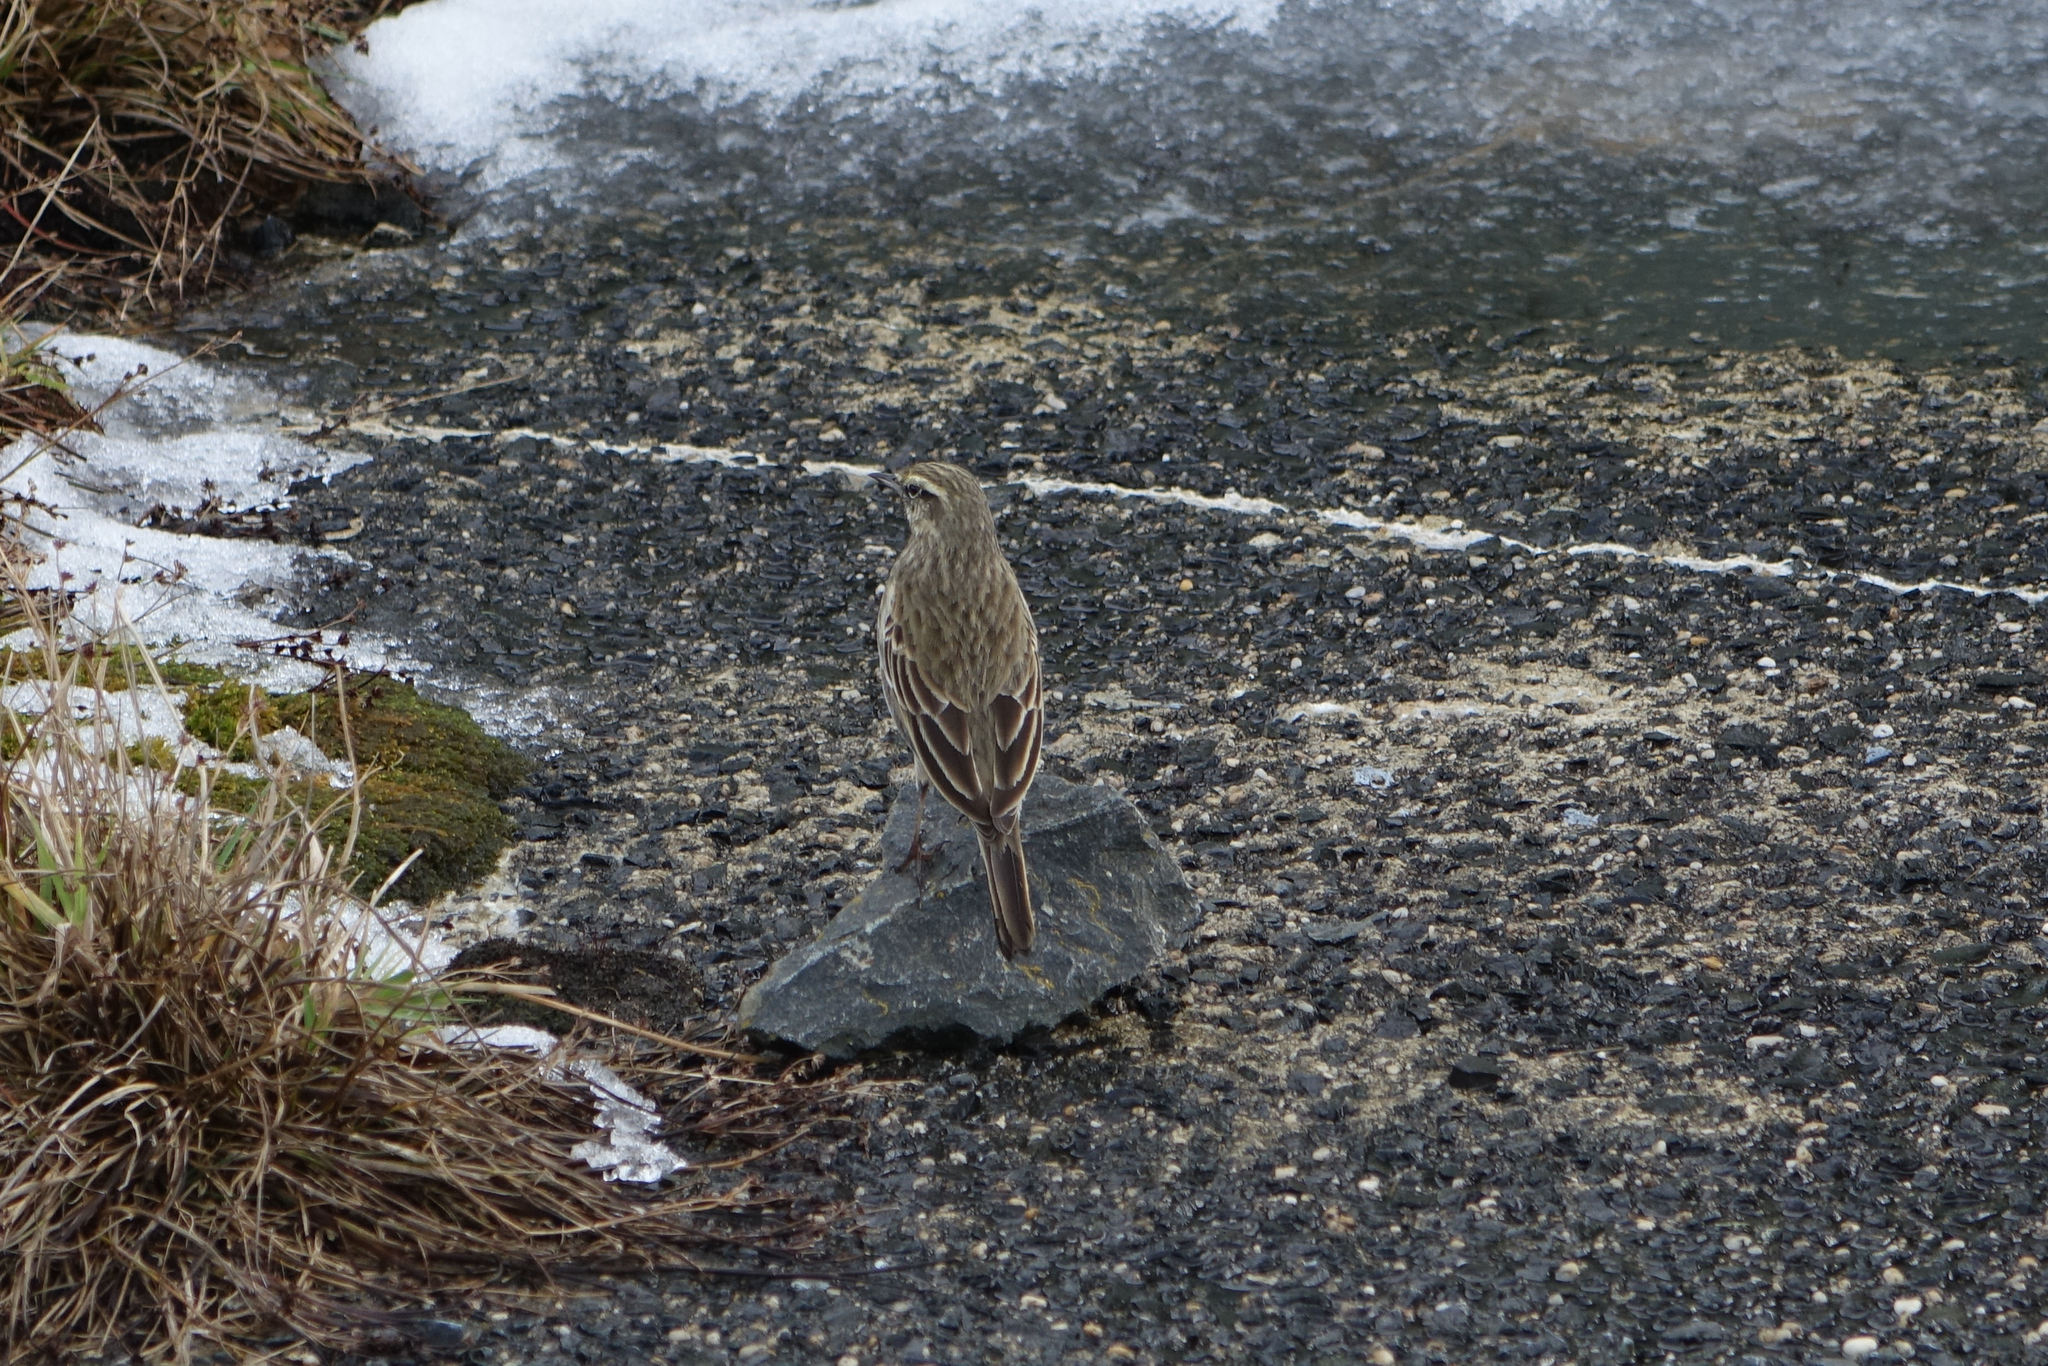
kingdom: Animalia
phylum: Chordata
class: Aves
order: Passeriformes
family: Motacillidae
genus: Anthus
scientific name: Anthus novaeseelandiae
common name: New zealand pipit
